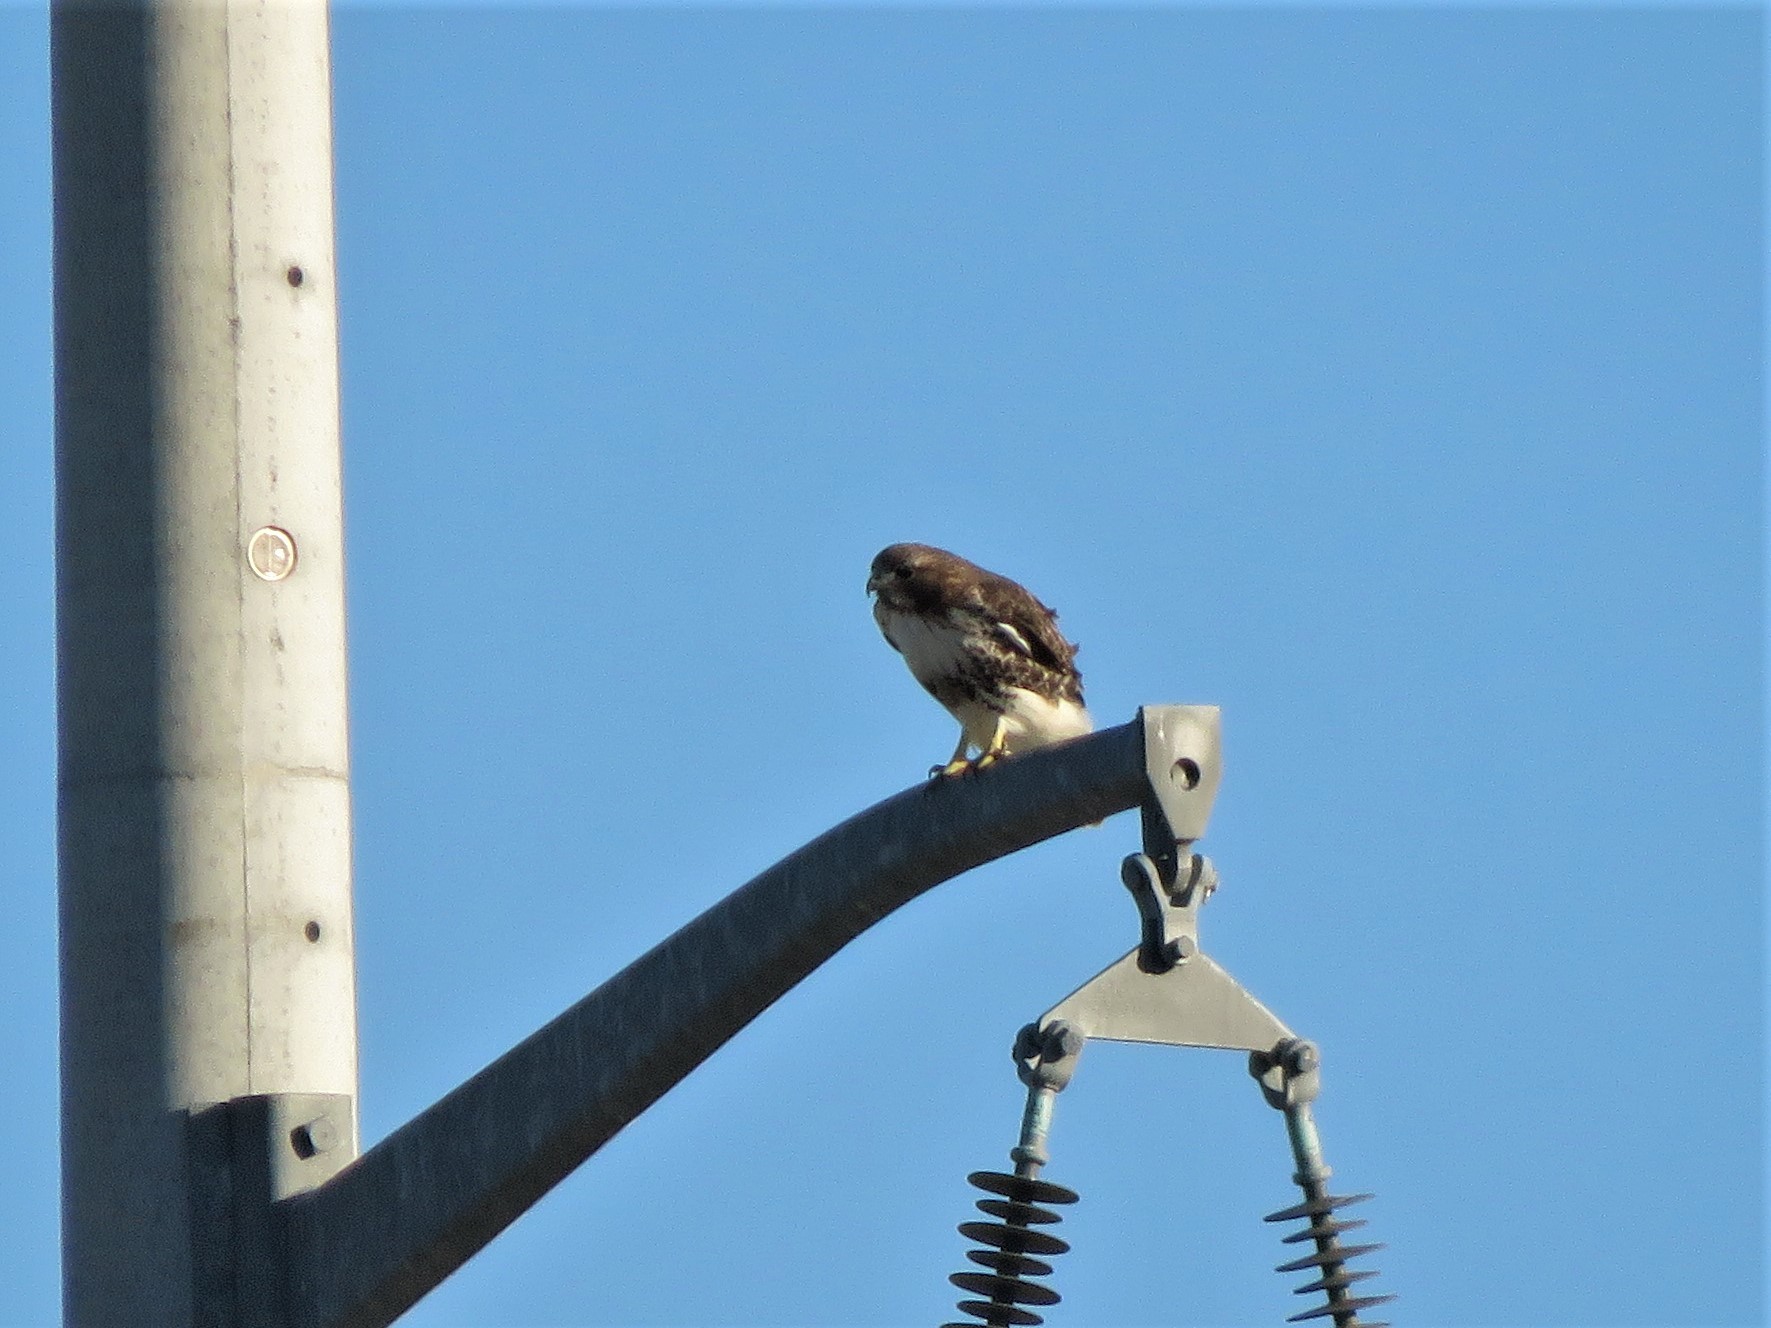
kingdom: Animalia
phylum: Chordata
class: Aves
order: Accipitriformes
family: Accipitridae
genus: Buteo
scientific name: Buteo jamaicensis
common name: Red-tailed hawk
